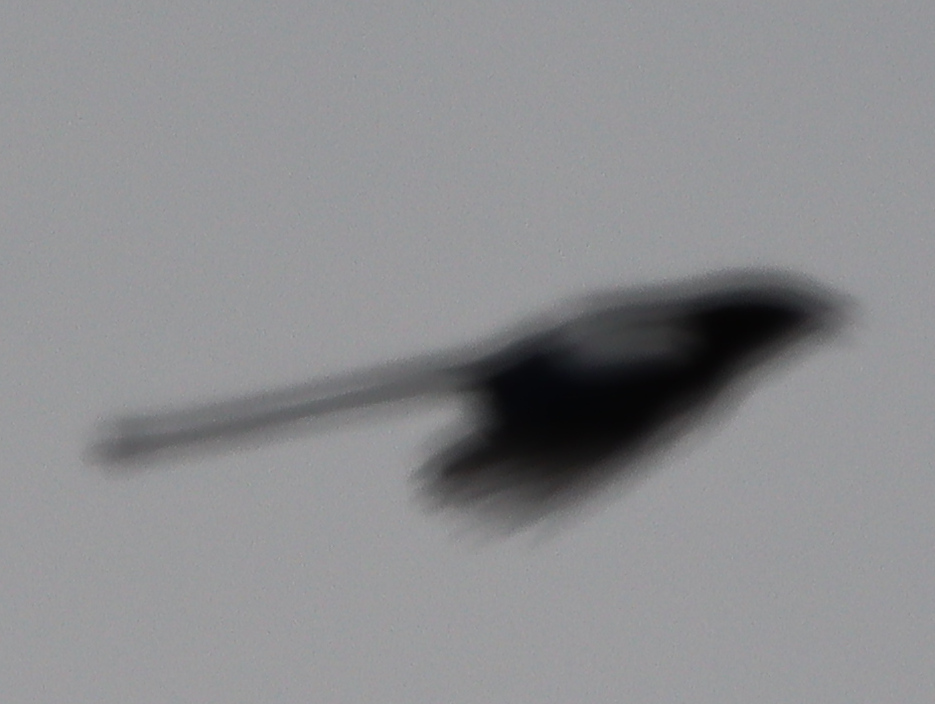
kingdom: Animalia
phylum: Chordata
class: Aves
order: Passeriformes
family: Corvidae
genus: Pica
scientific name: Pica hudsonia
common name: Black-billed magpie
